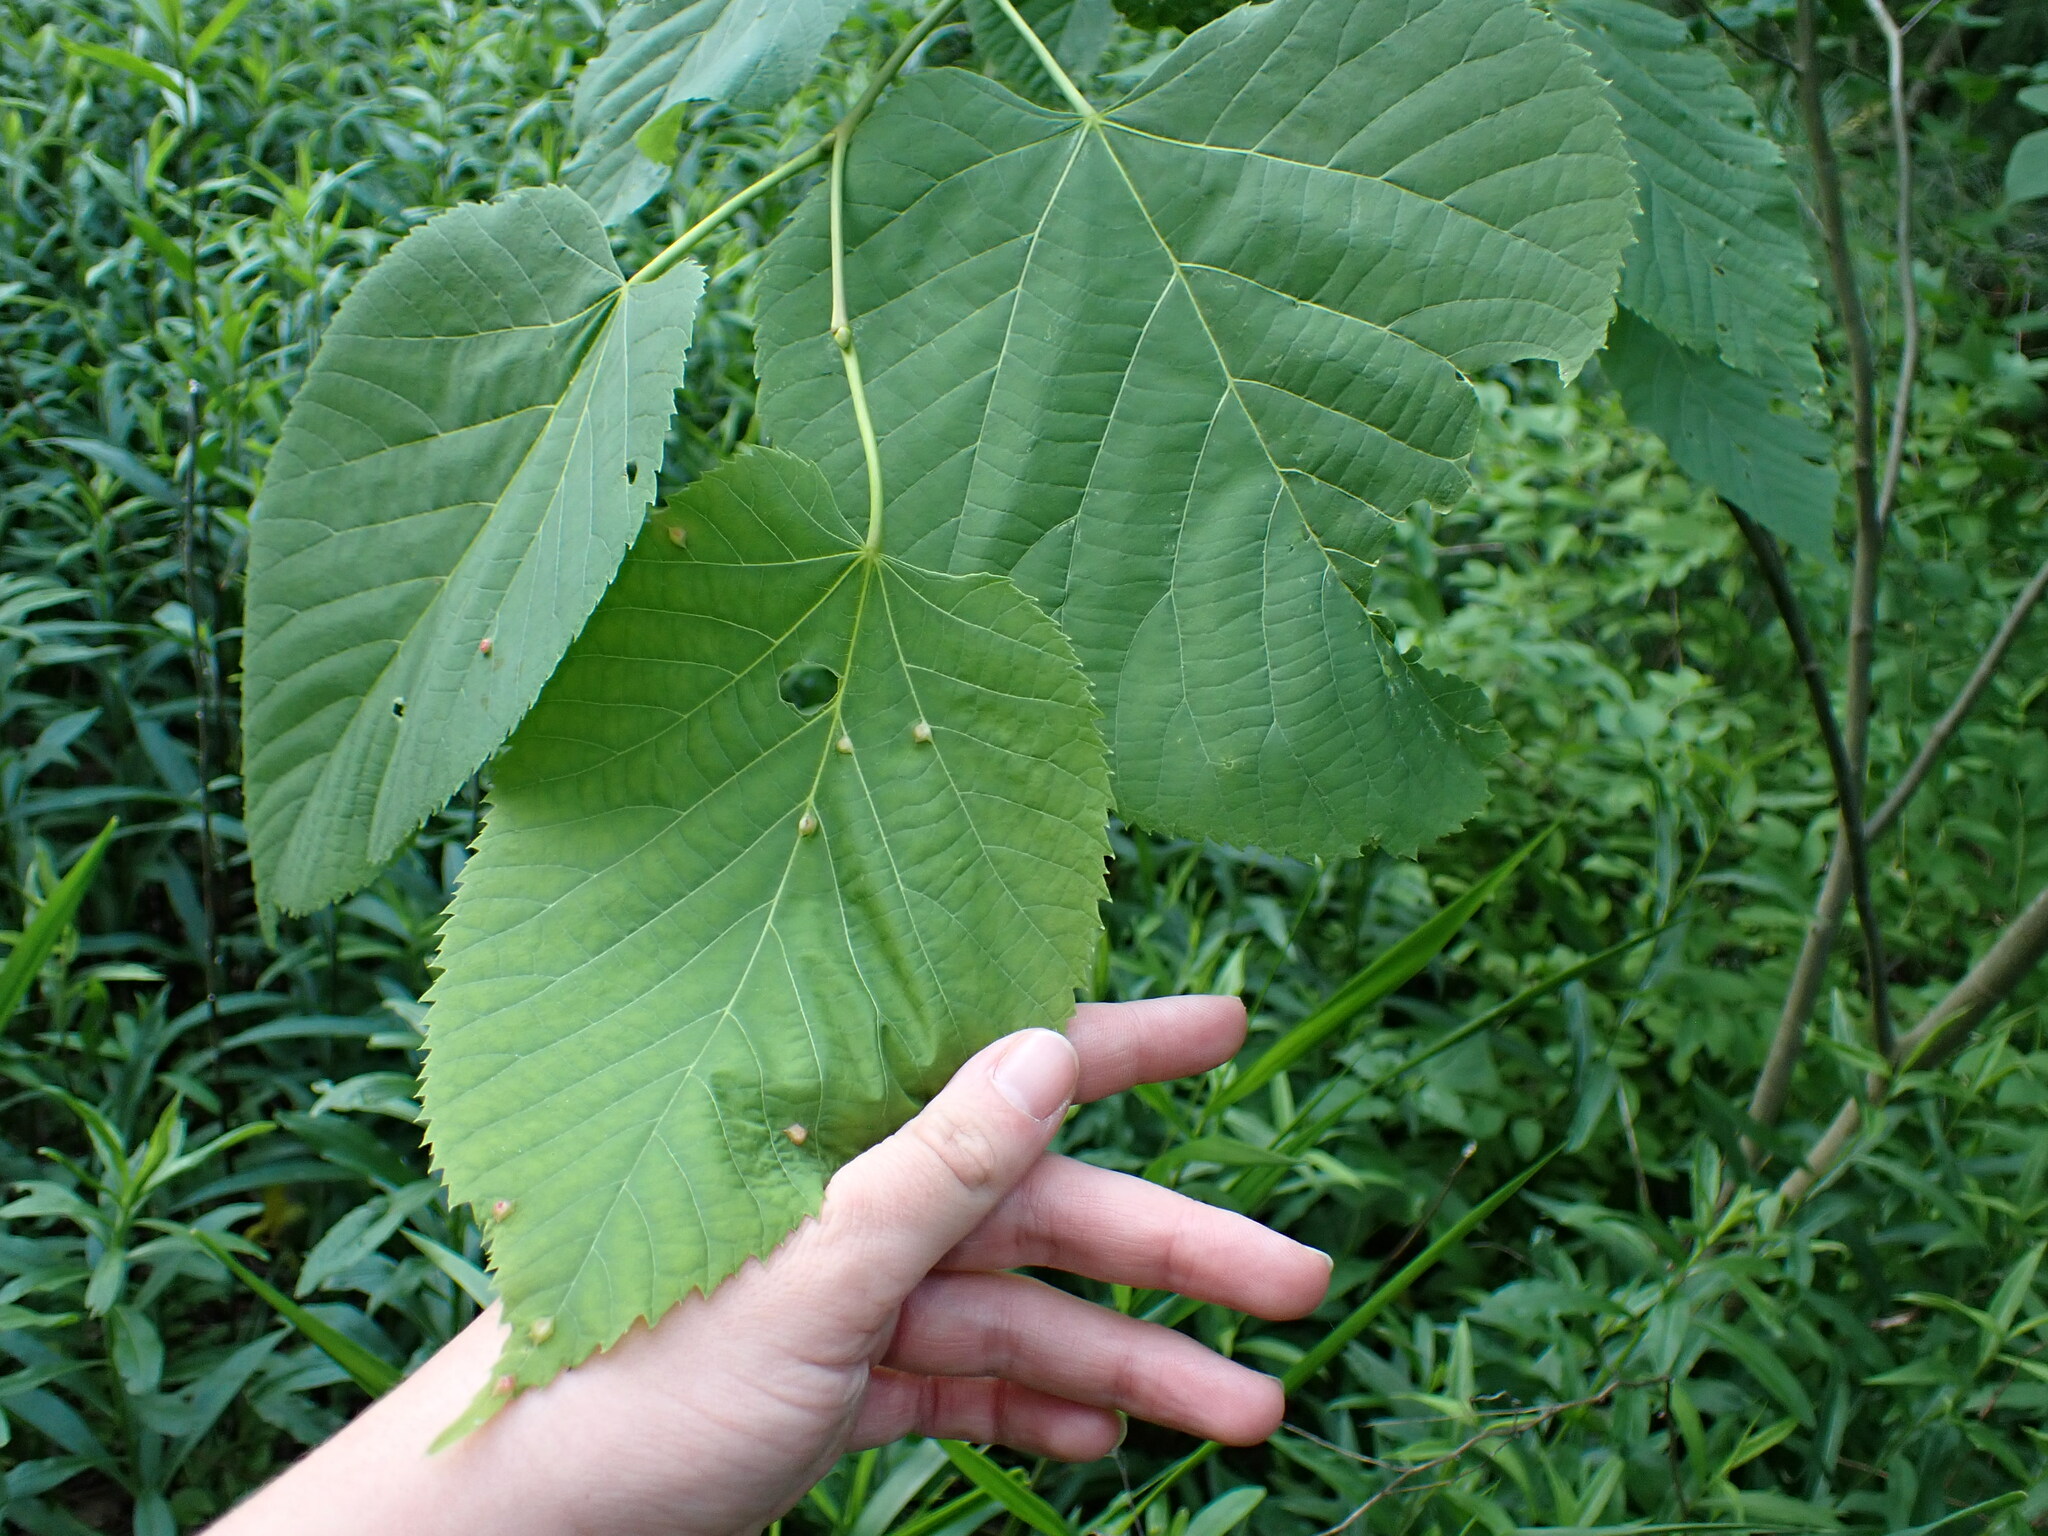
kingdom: Animalia
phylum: Arthropoda
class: Insecta
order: Diptera
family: Cecidomyiidae
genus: Contarinia
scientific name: Contarinia verrucicola
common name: Linden wart gall midge
